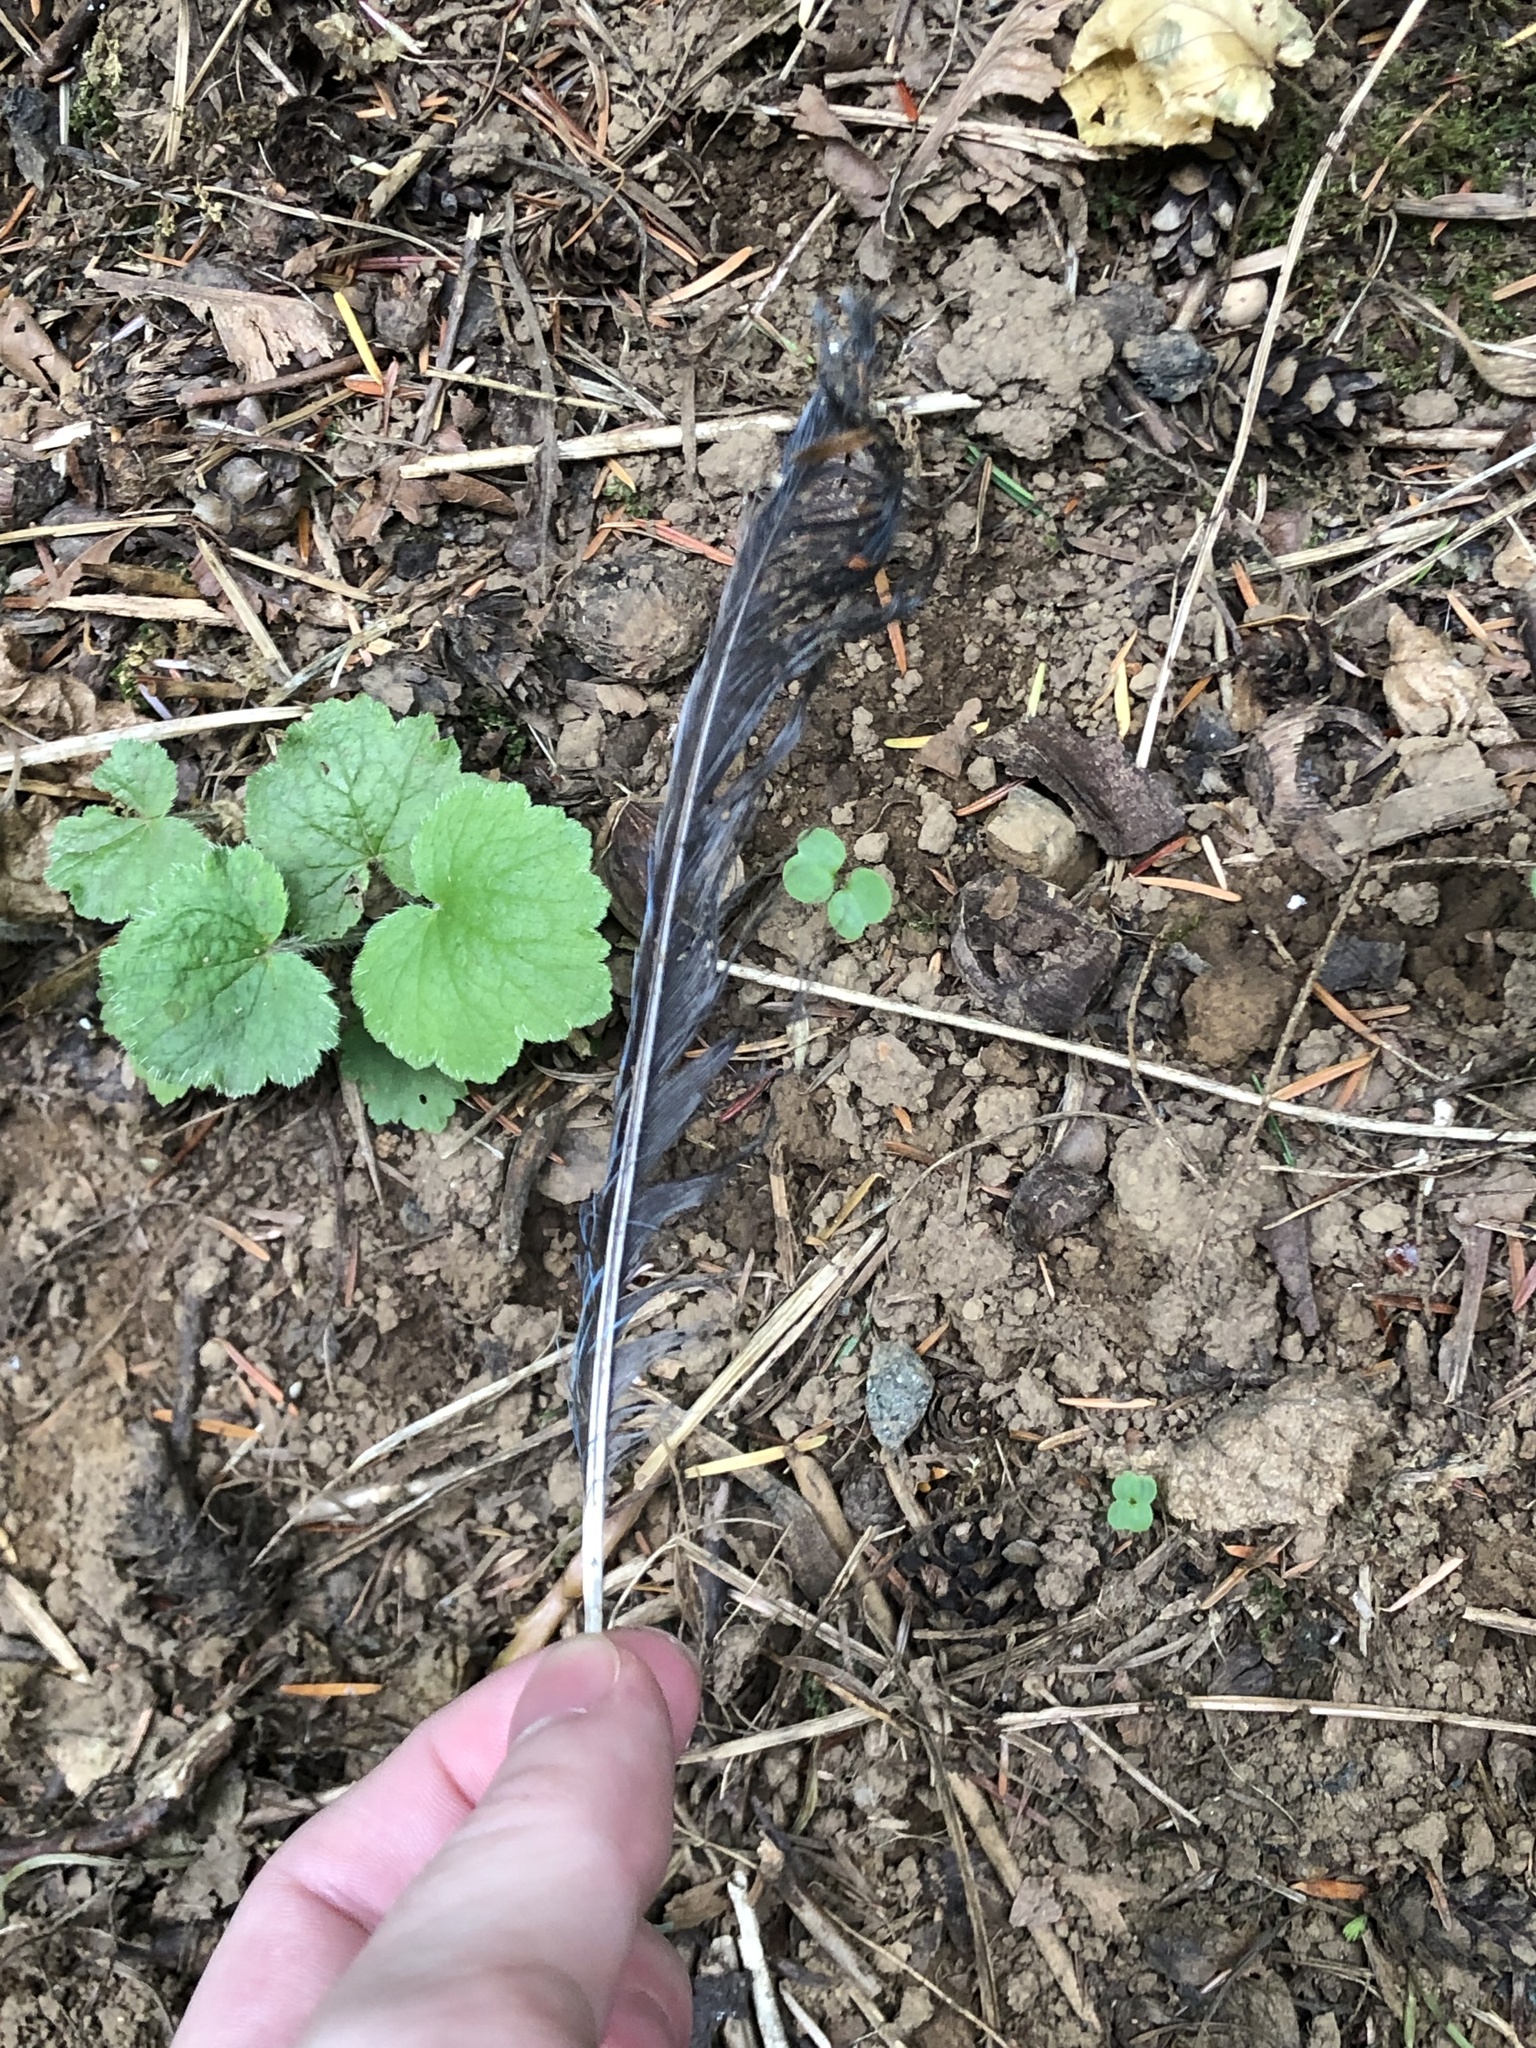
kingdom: Animalia
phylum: Chordata
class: Aves
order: Passeriformes
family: Corvidae
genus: Cyanocitta
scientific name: Cyanocitta stelleri
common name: Steller's jay
